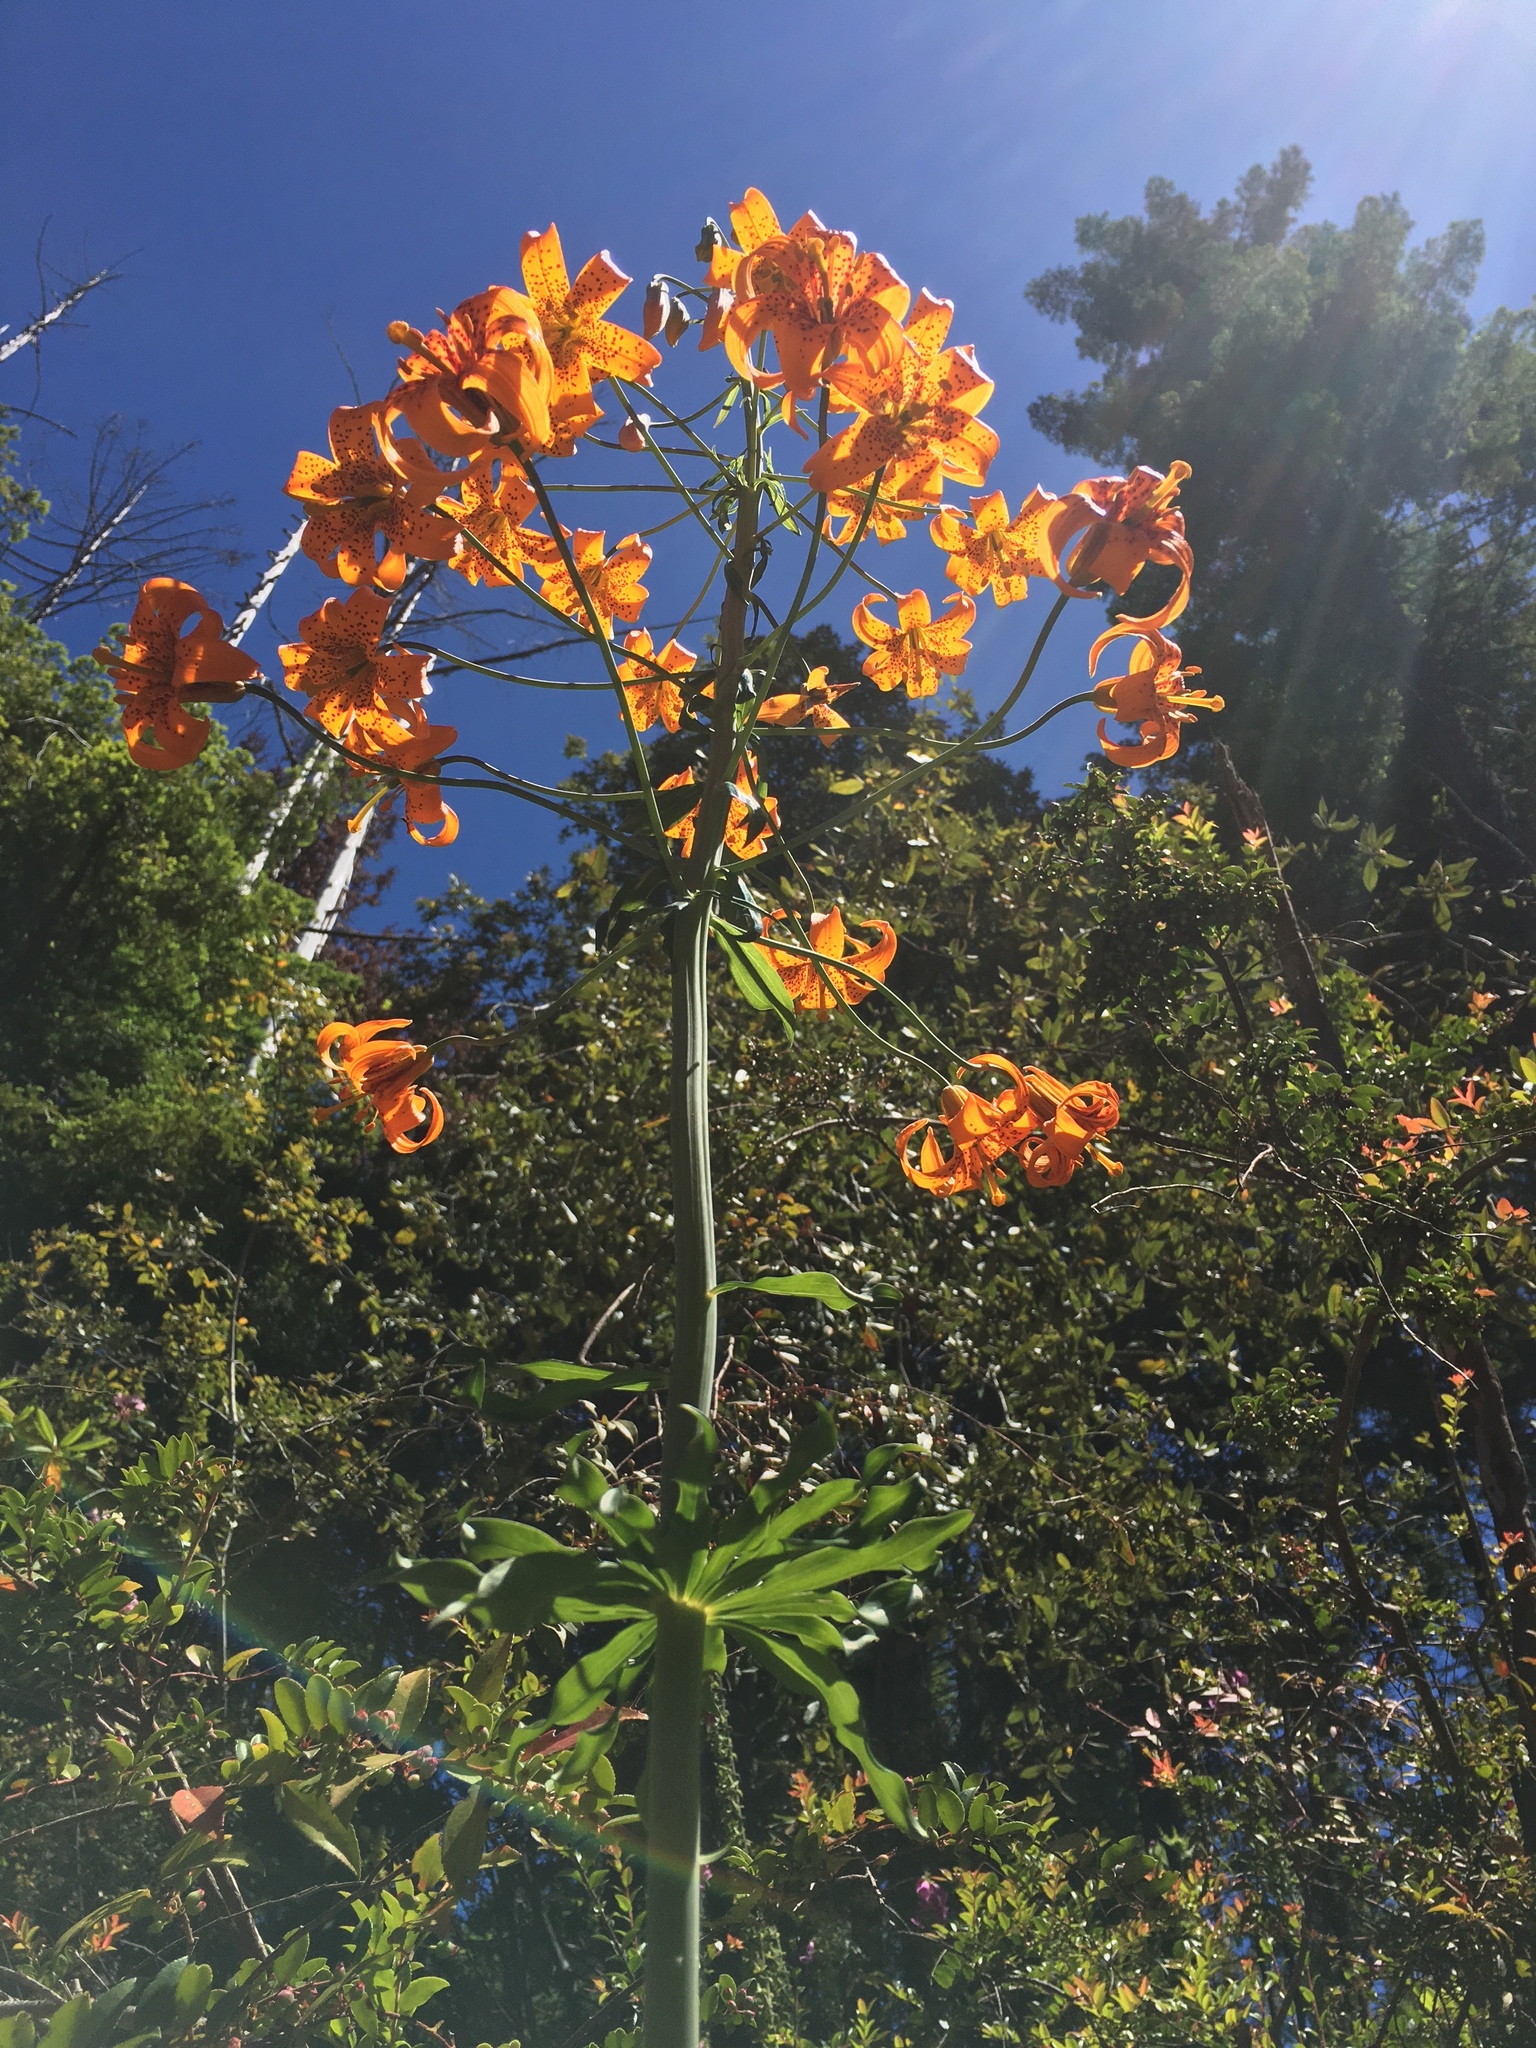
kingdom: Plantae
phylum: Tracheophyta
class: Liliopsida
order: Liliales
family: Liliaceae
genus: Lilium
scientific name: Lilium columbianum
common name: Columbia lily
